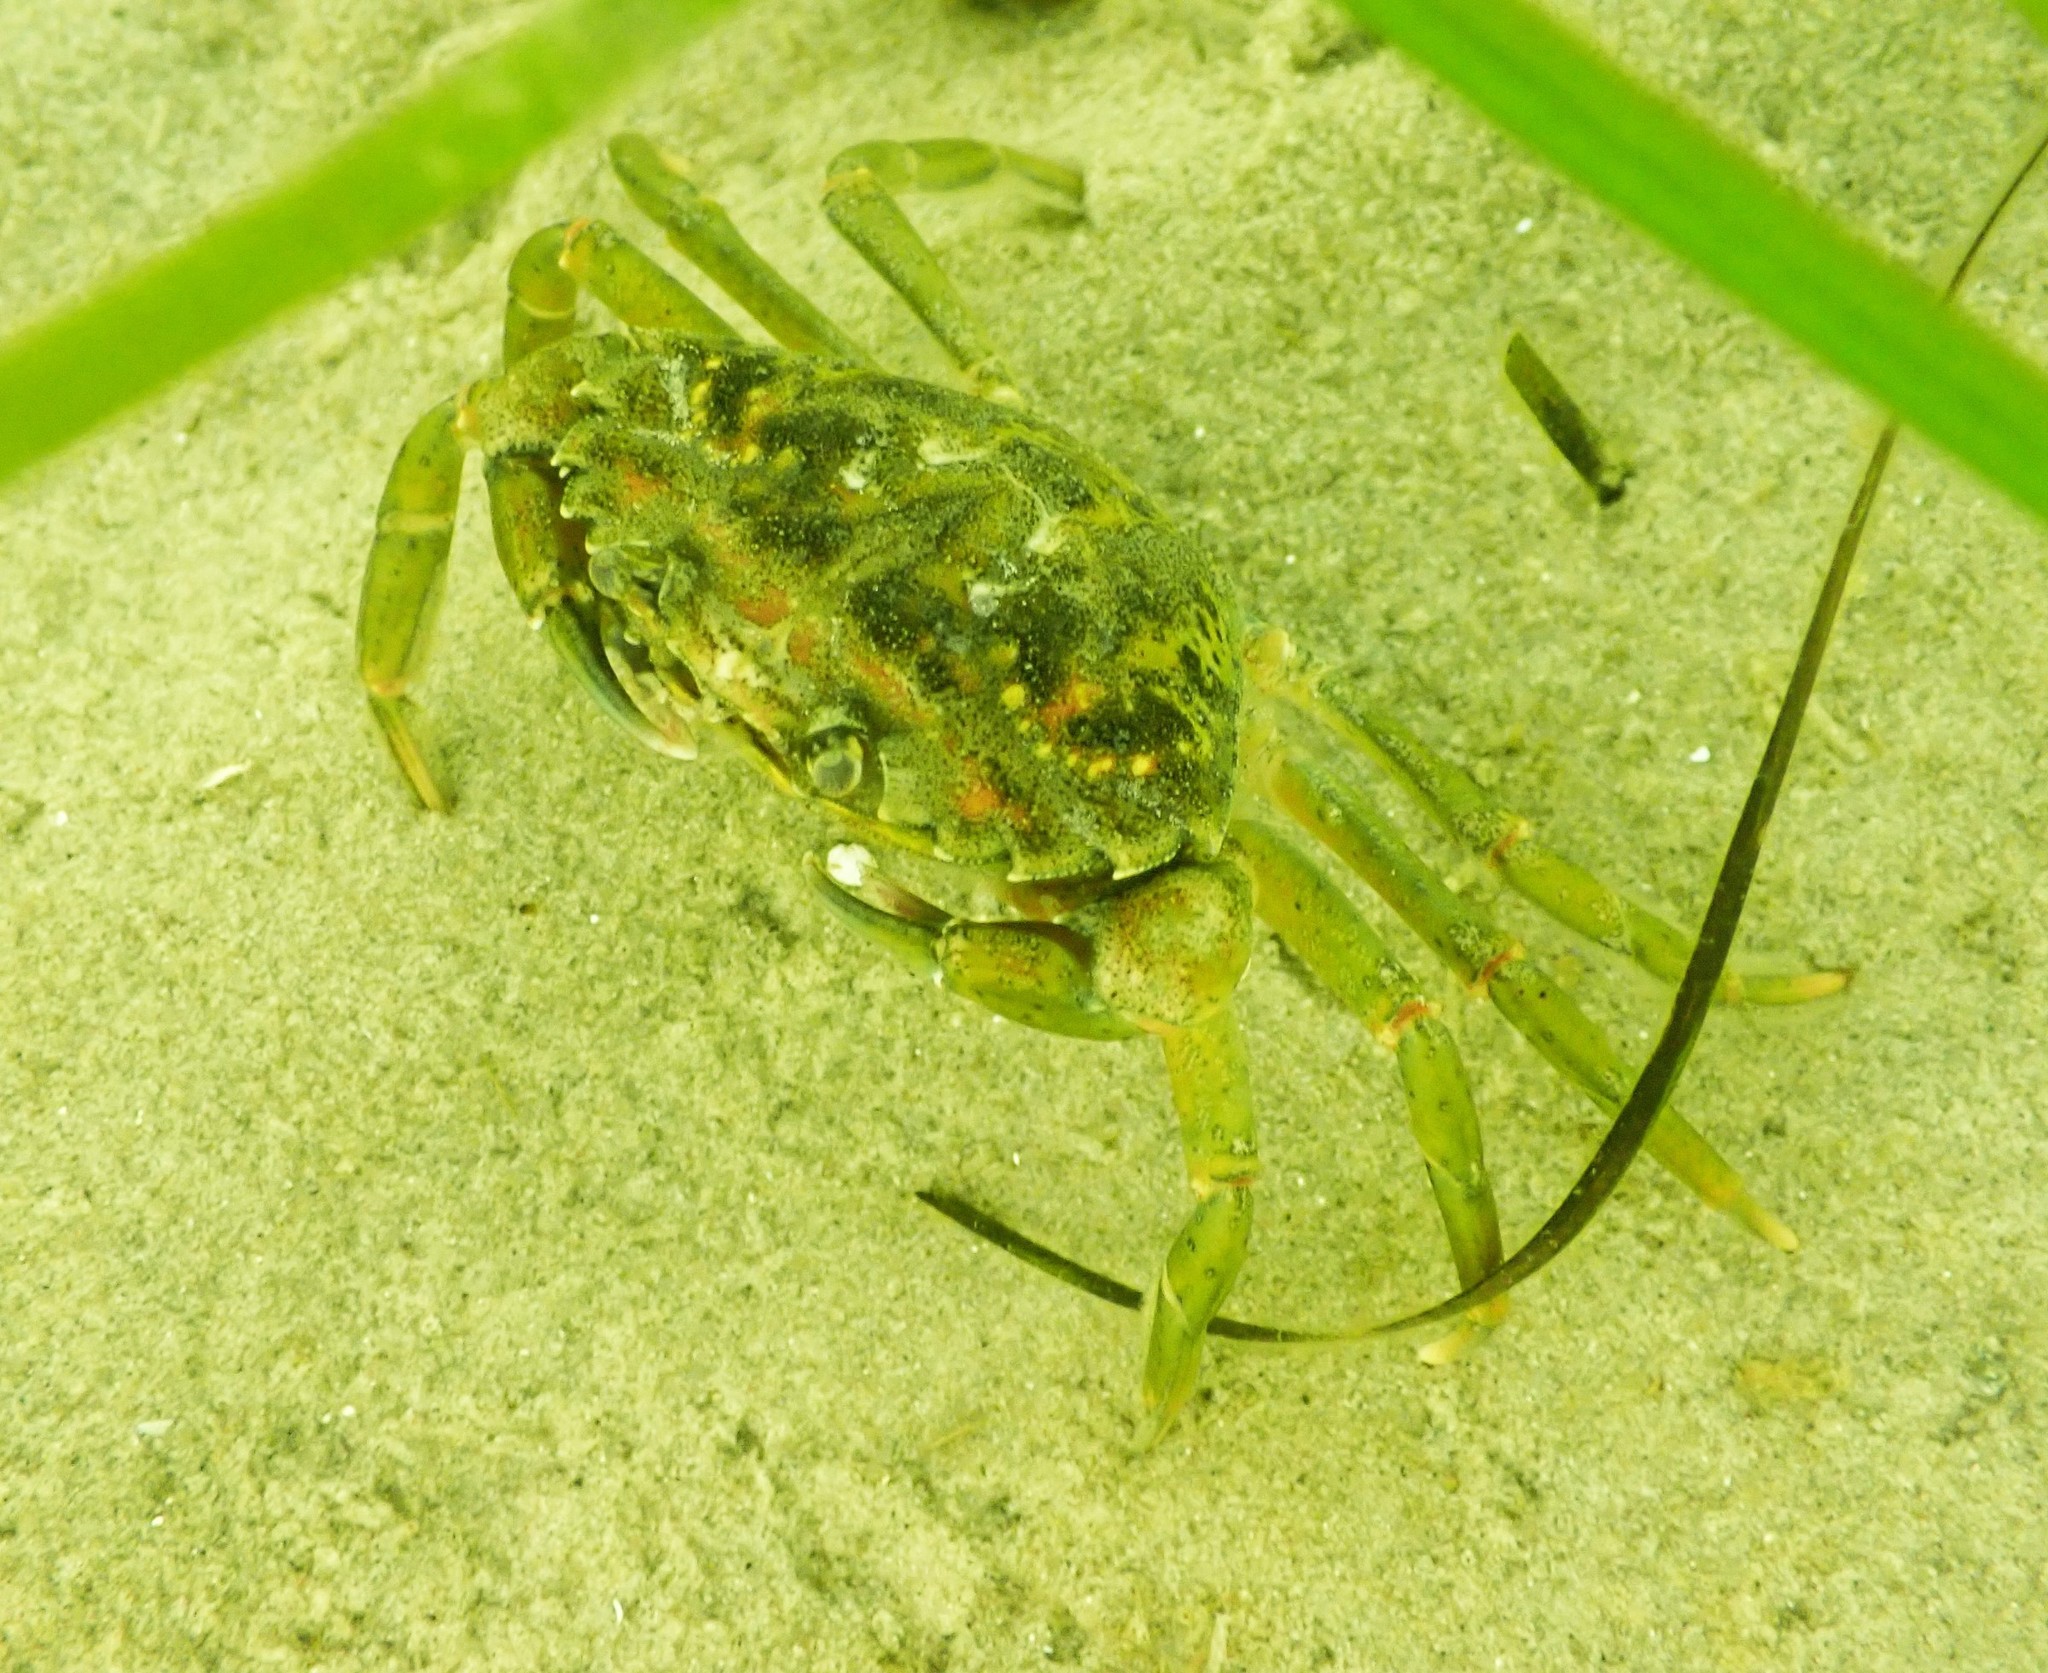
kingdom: Animalia
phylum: Arthropoda
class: Malacostraca
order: Decapoda
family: Carcinidae
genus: Carcinus
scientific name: Carcinus maenas
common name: European green crab
